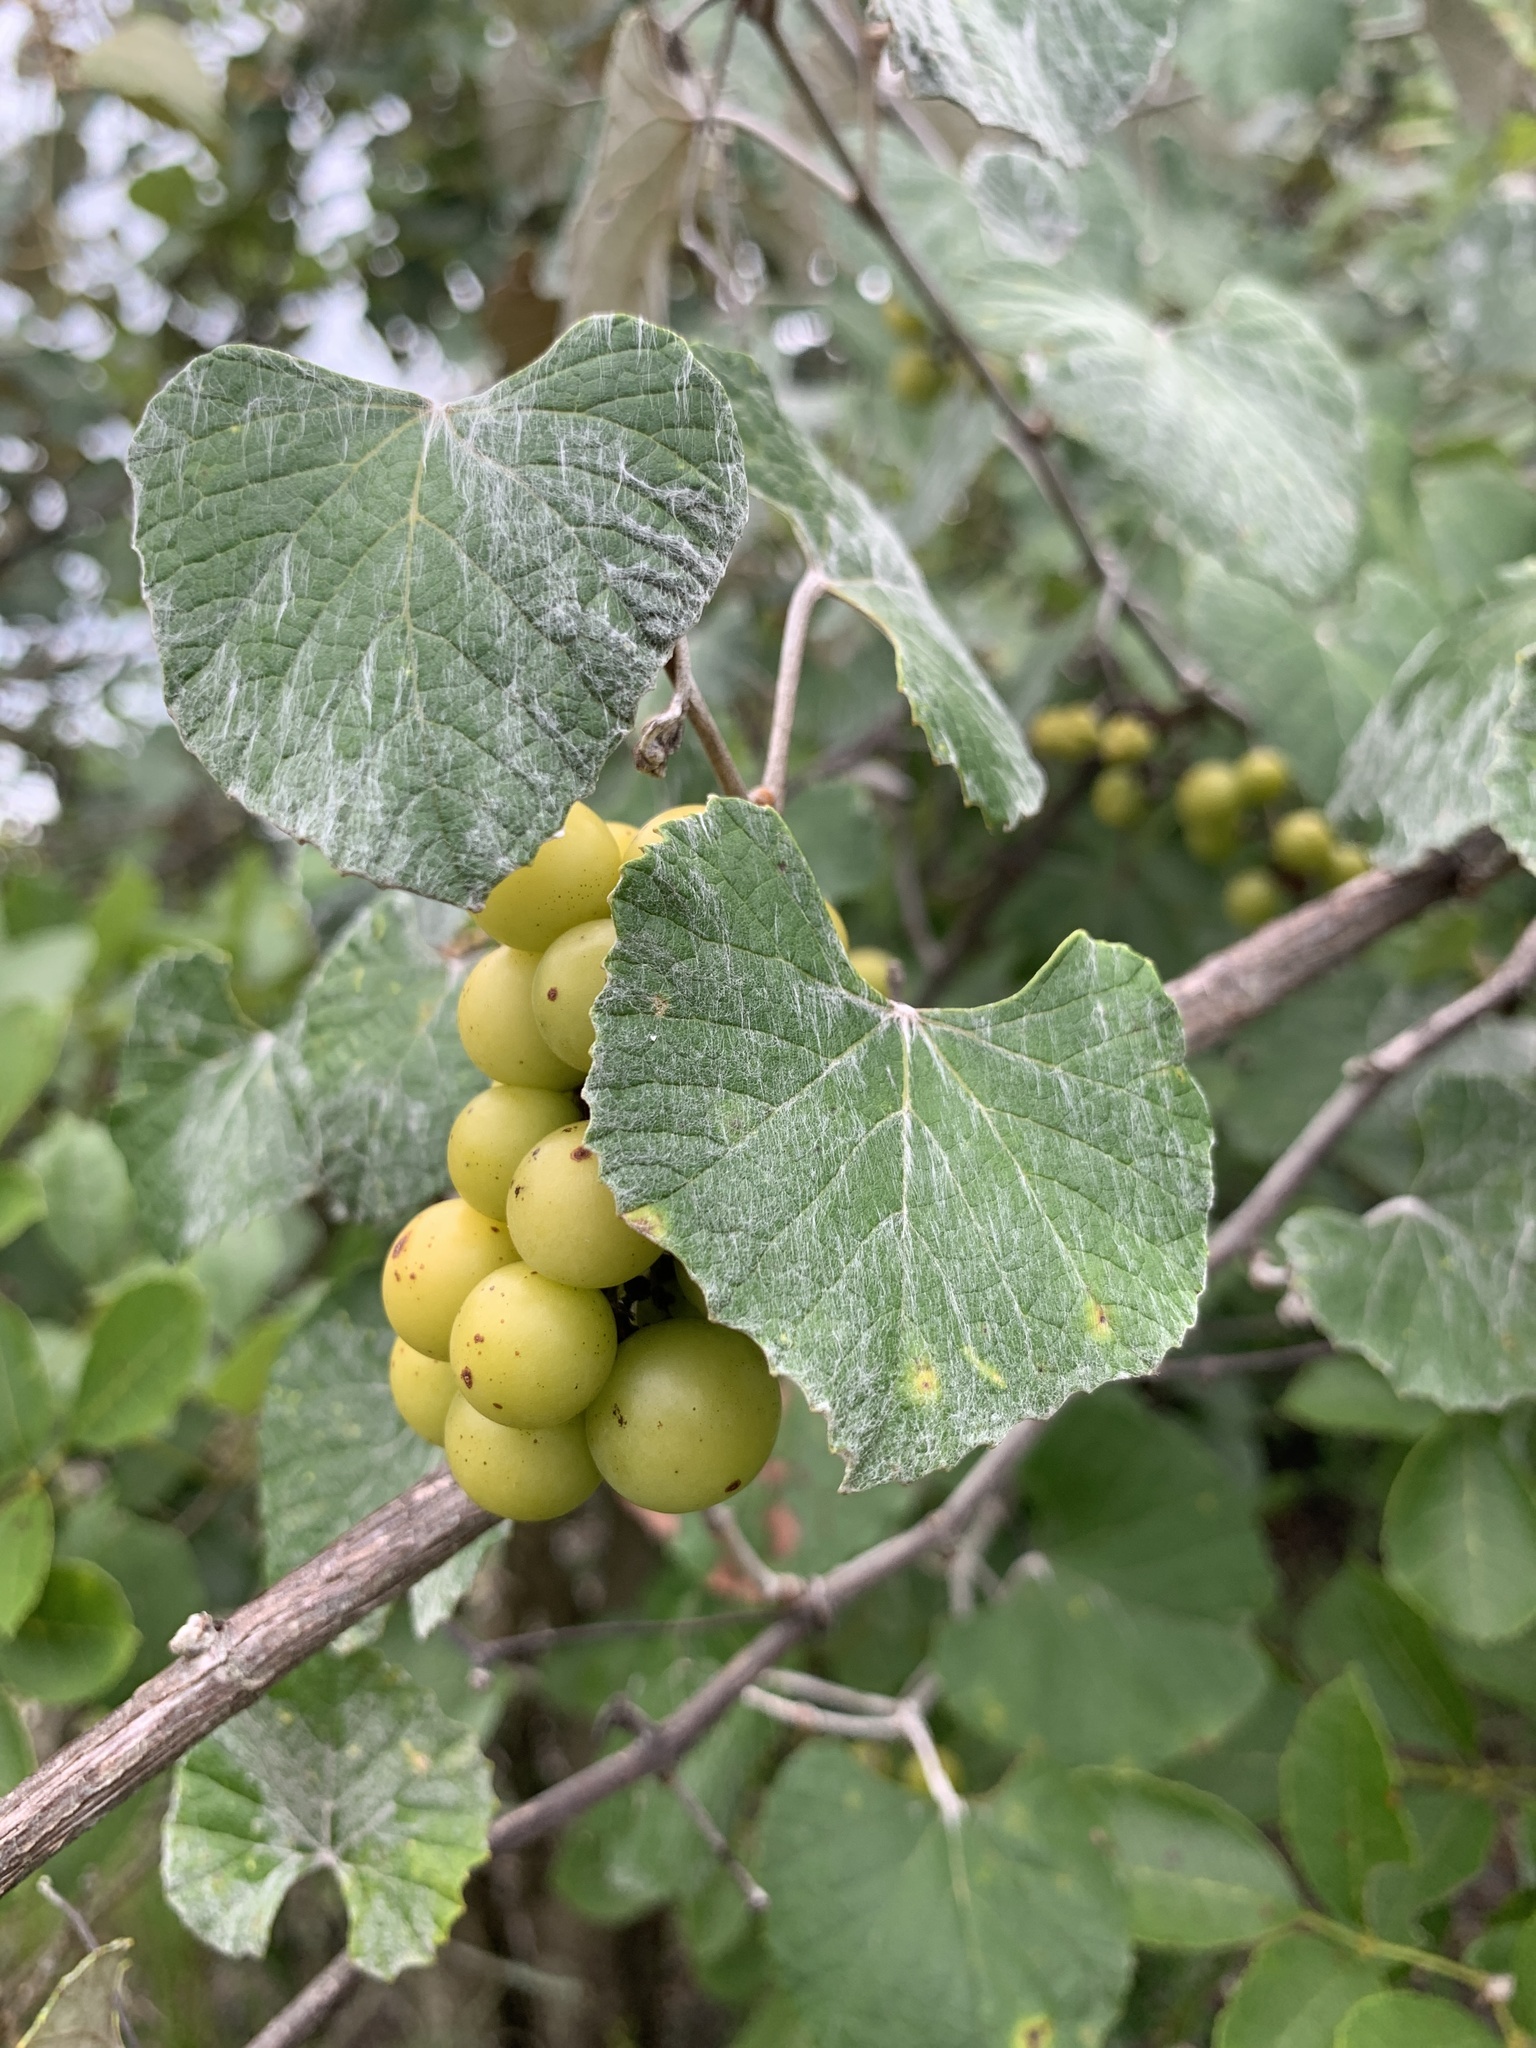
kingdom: Plantae
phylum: Tracheophyta
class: Magnoliopsida
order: Vitales
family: Vitaceae
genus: Vitis
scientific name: Vitis shuttleworthii
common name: Caloosa grape
